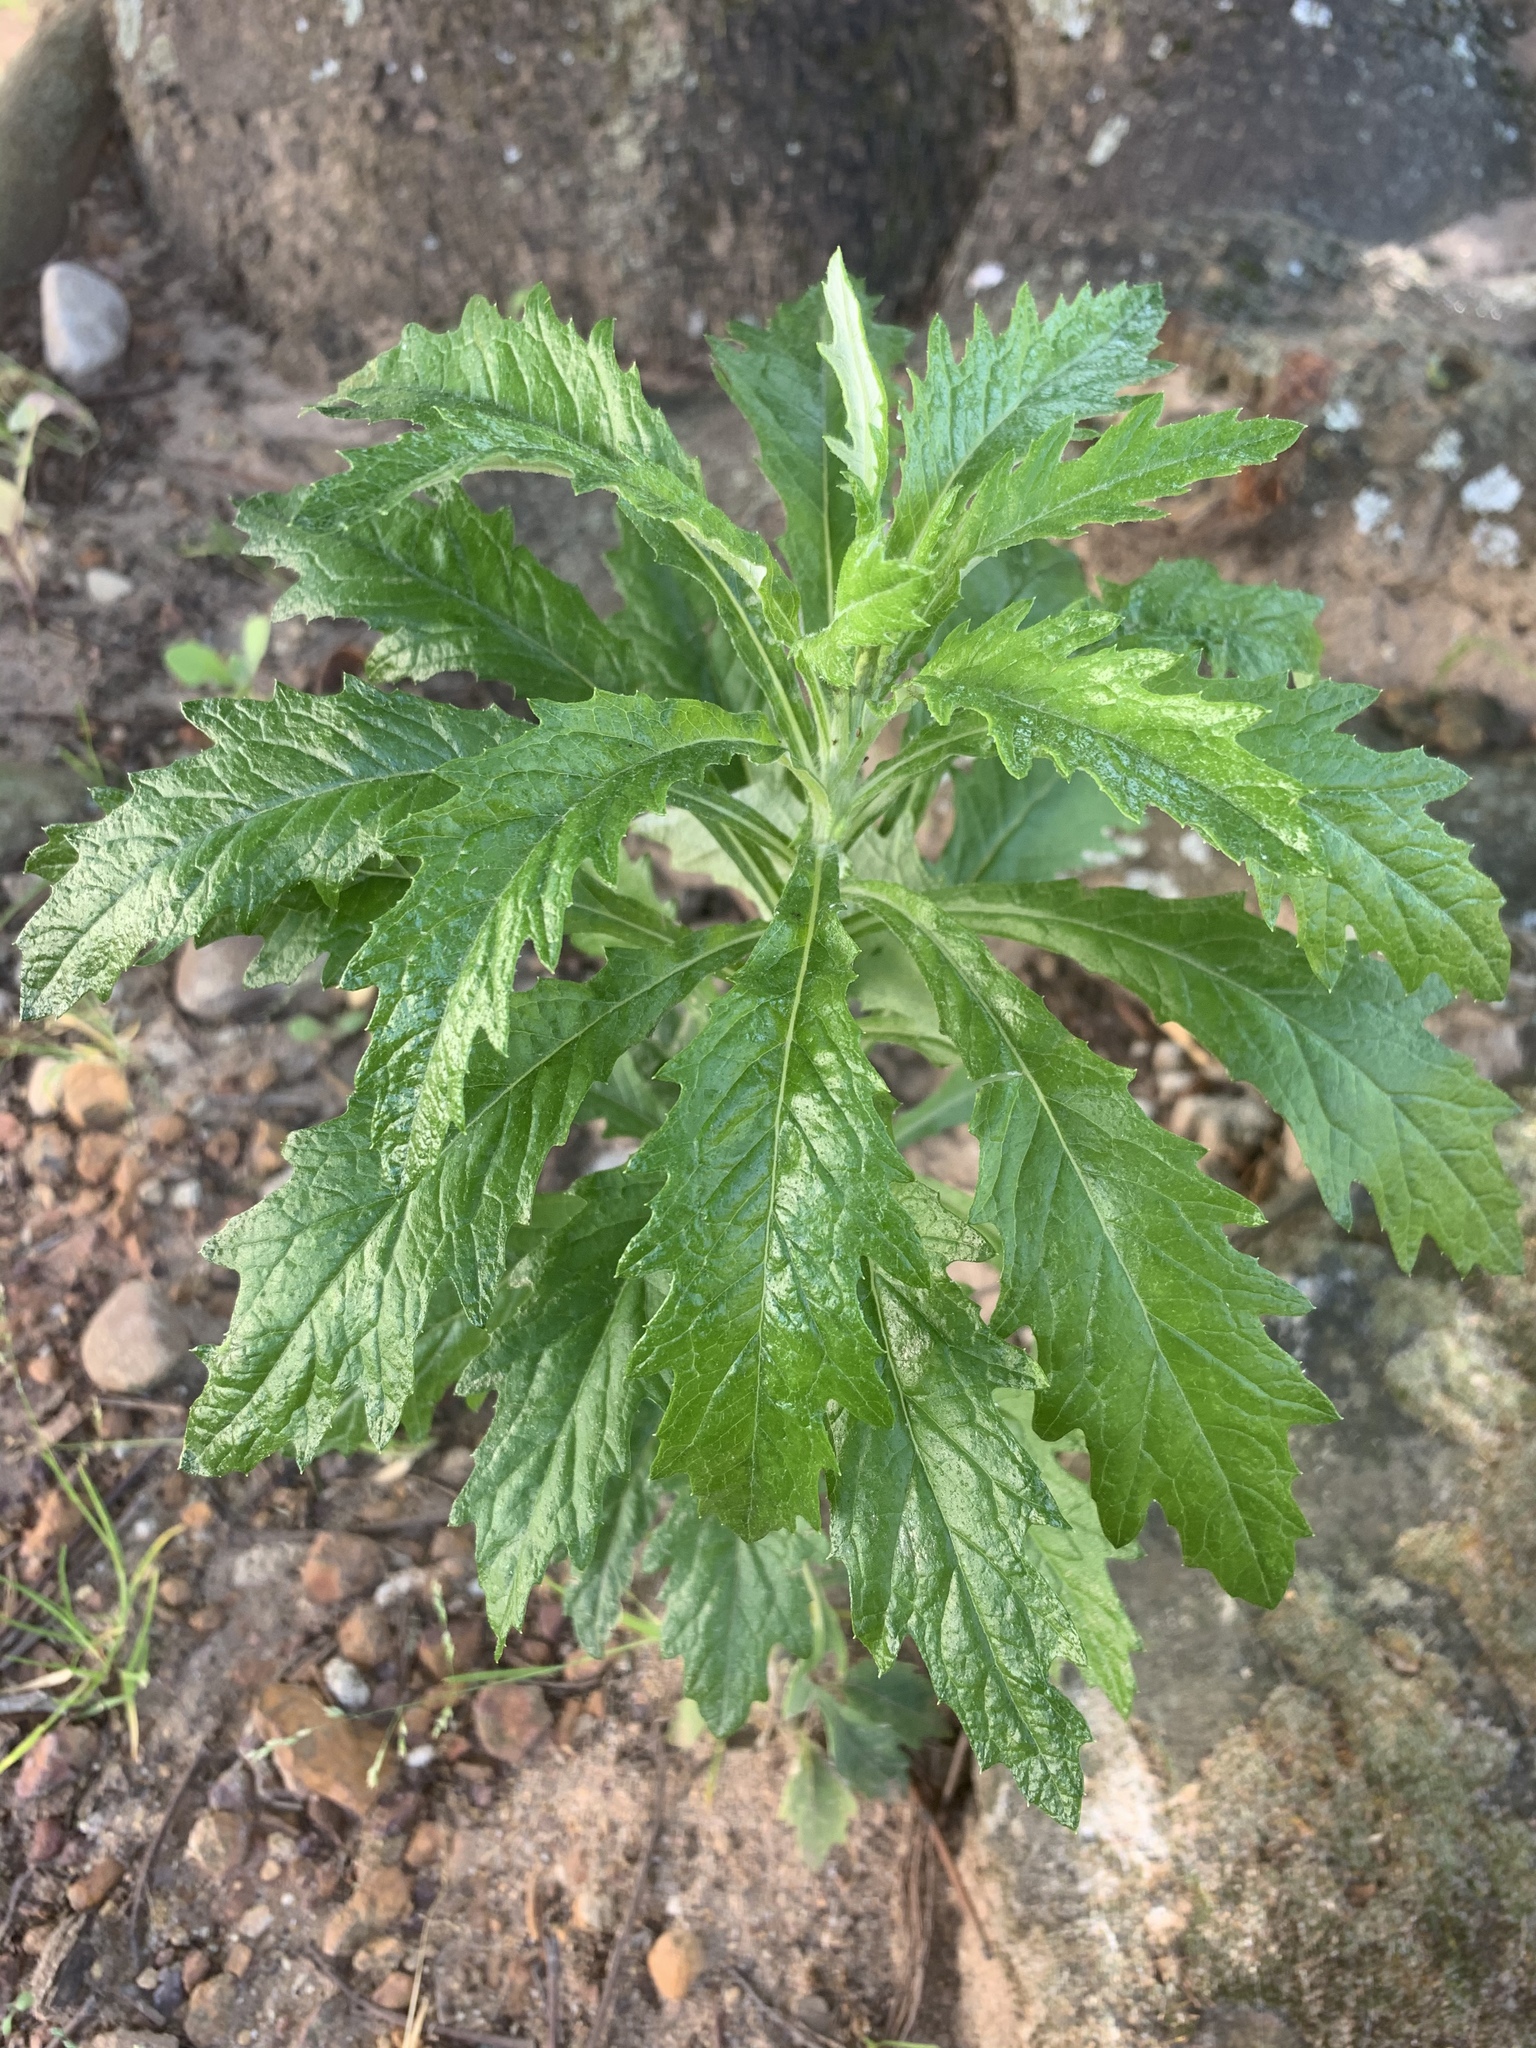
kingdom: Plantae
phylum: Tracheophyta
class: Magnoliopsida
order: Asterales
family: Asteraceae
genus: Senecio
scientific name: Senecio pterophorus
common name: Shoddy ragwort
